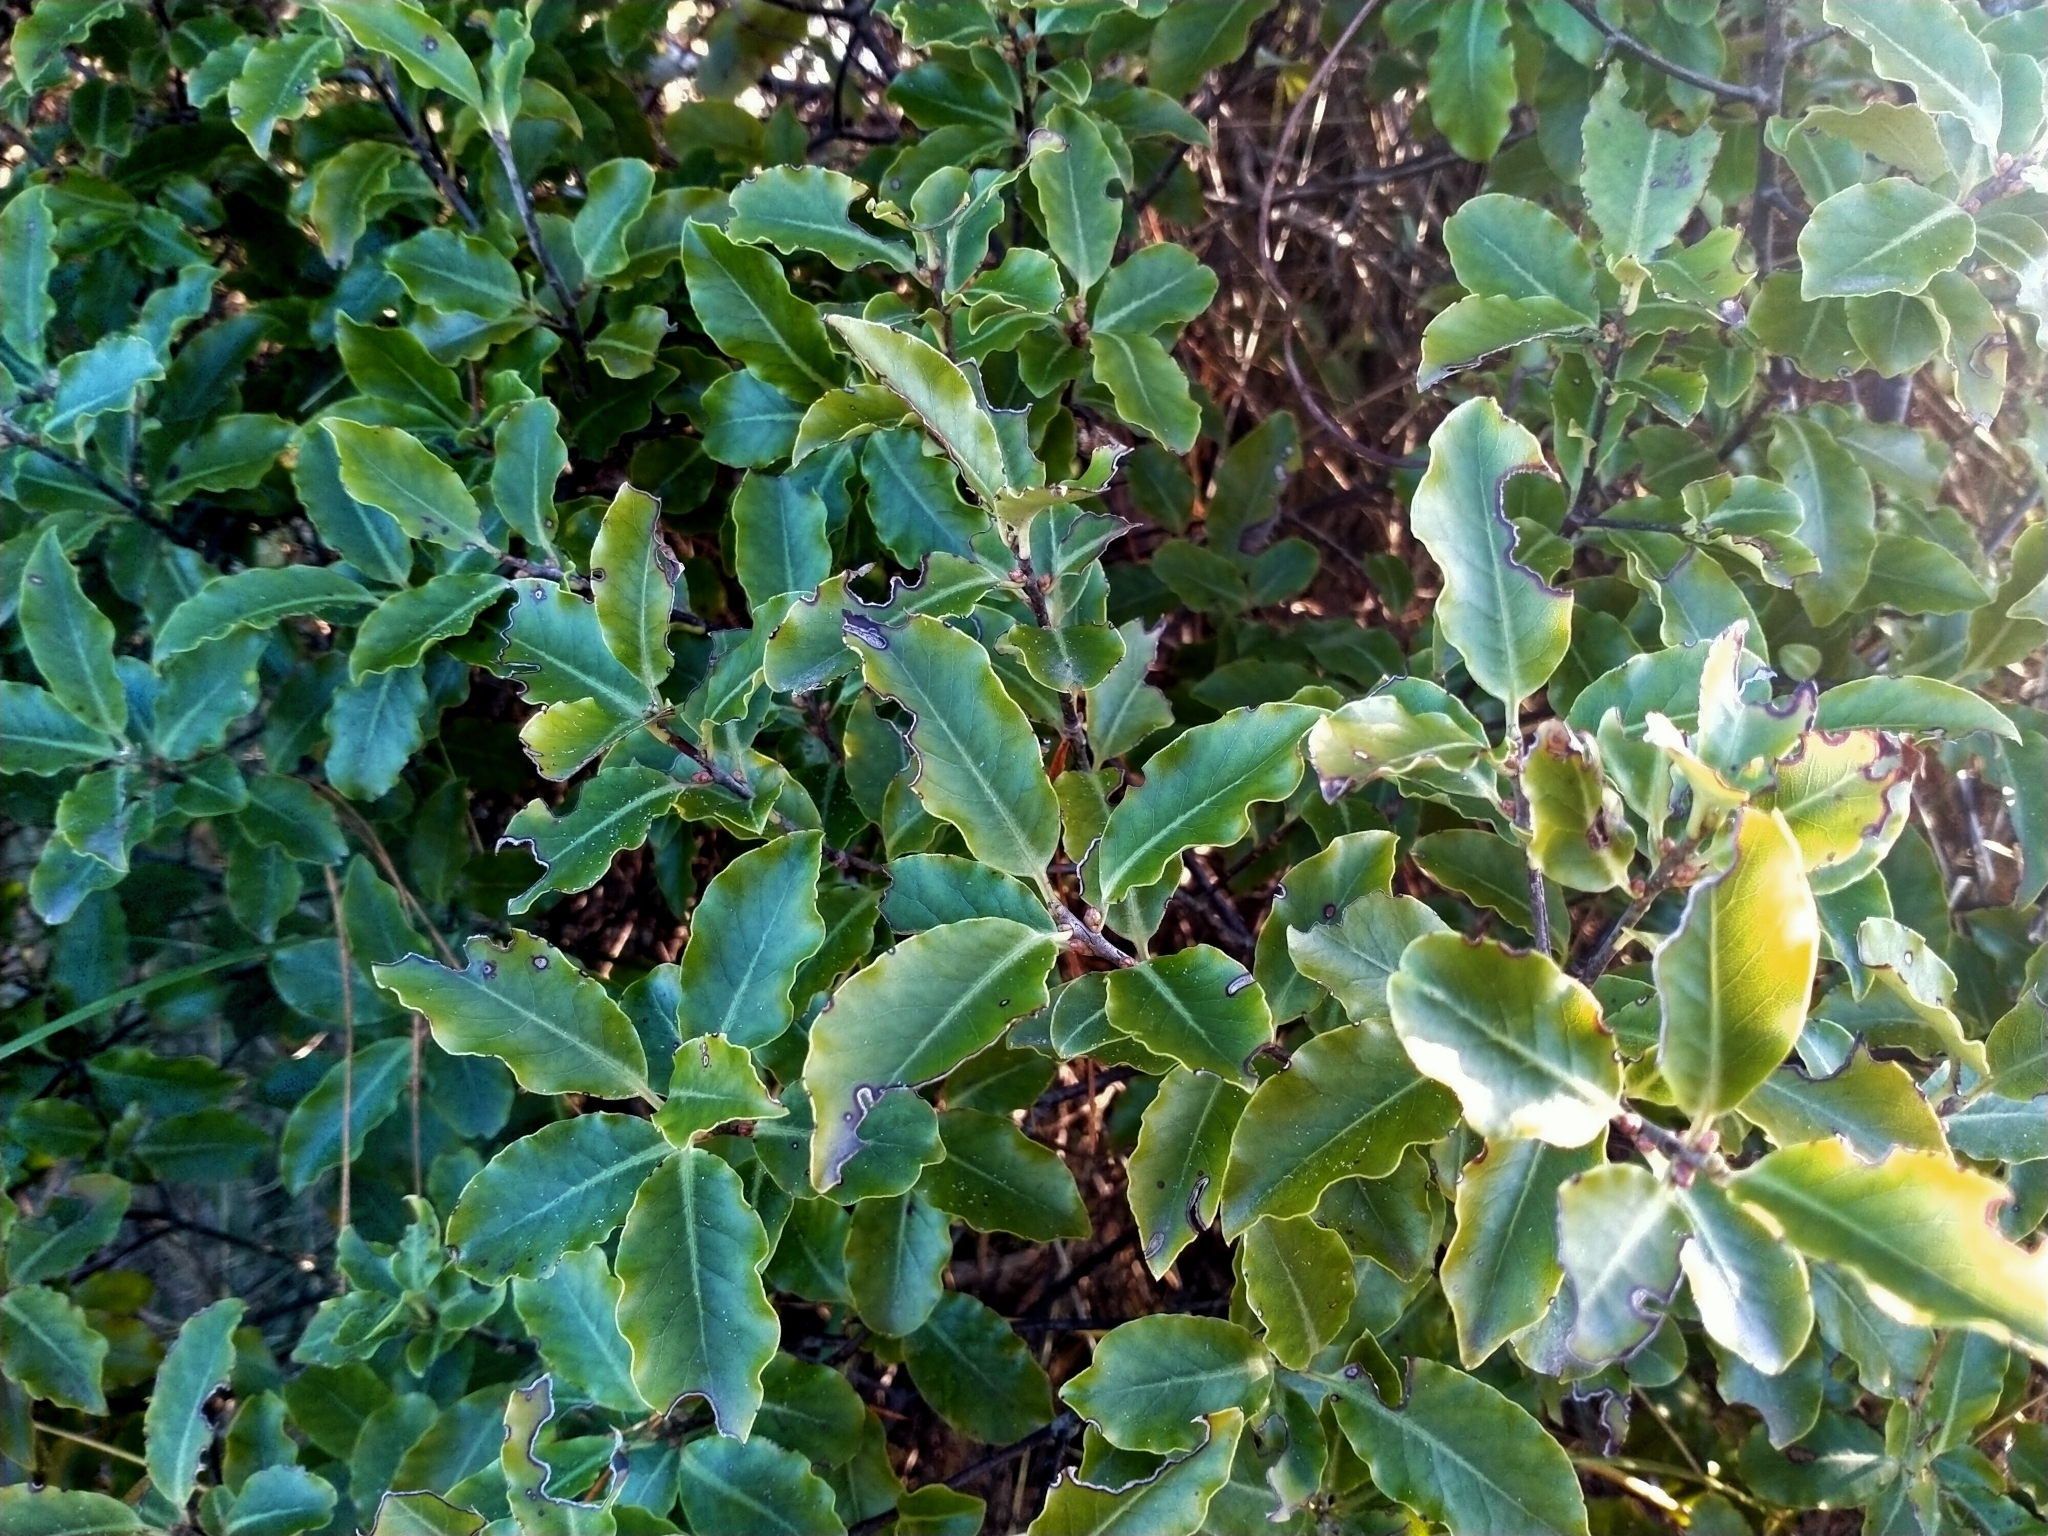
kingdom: Plantae
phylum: Tracheophyta
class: Magnoliopsida
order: Apiales
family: Pittosporaceae
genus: Pittosporum
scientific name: Pittosporum tenuifolium
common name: Kohuhu
